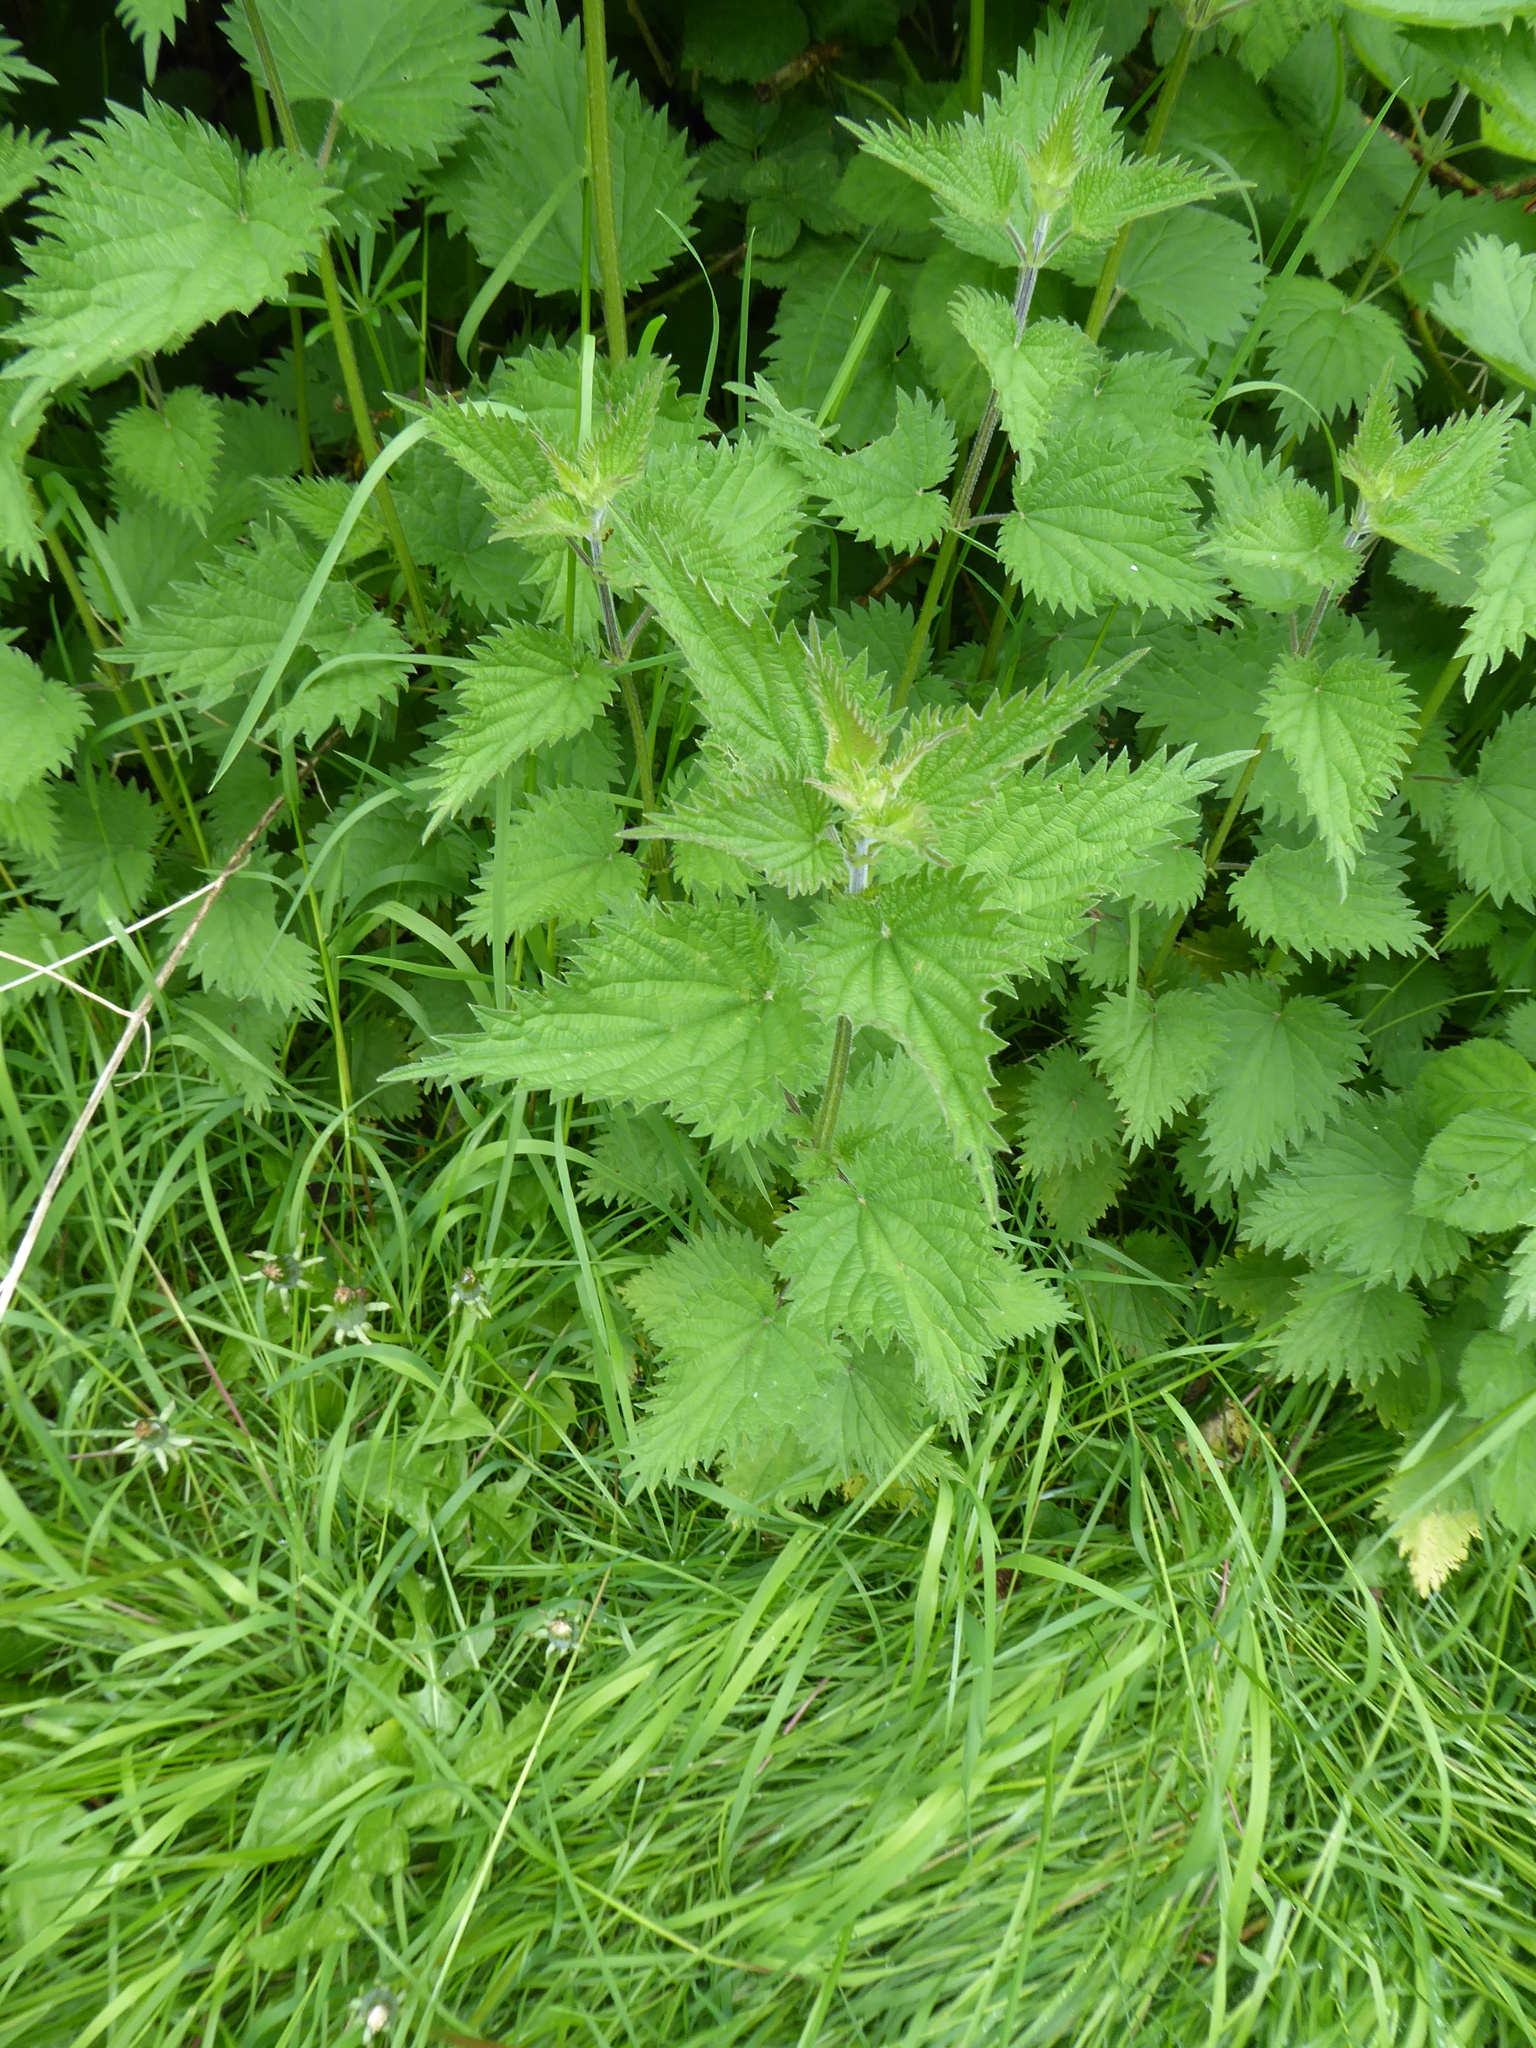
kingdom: Plantae
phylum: Tracheophyta
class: Magnoliopsida
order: Rosales
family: Urticaceae
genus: Urtica
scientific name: Urtica dioica
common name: Common nettle
